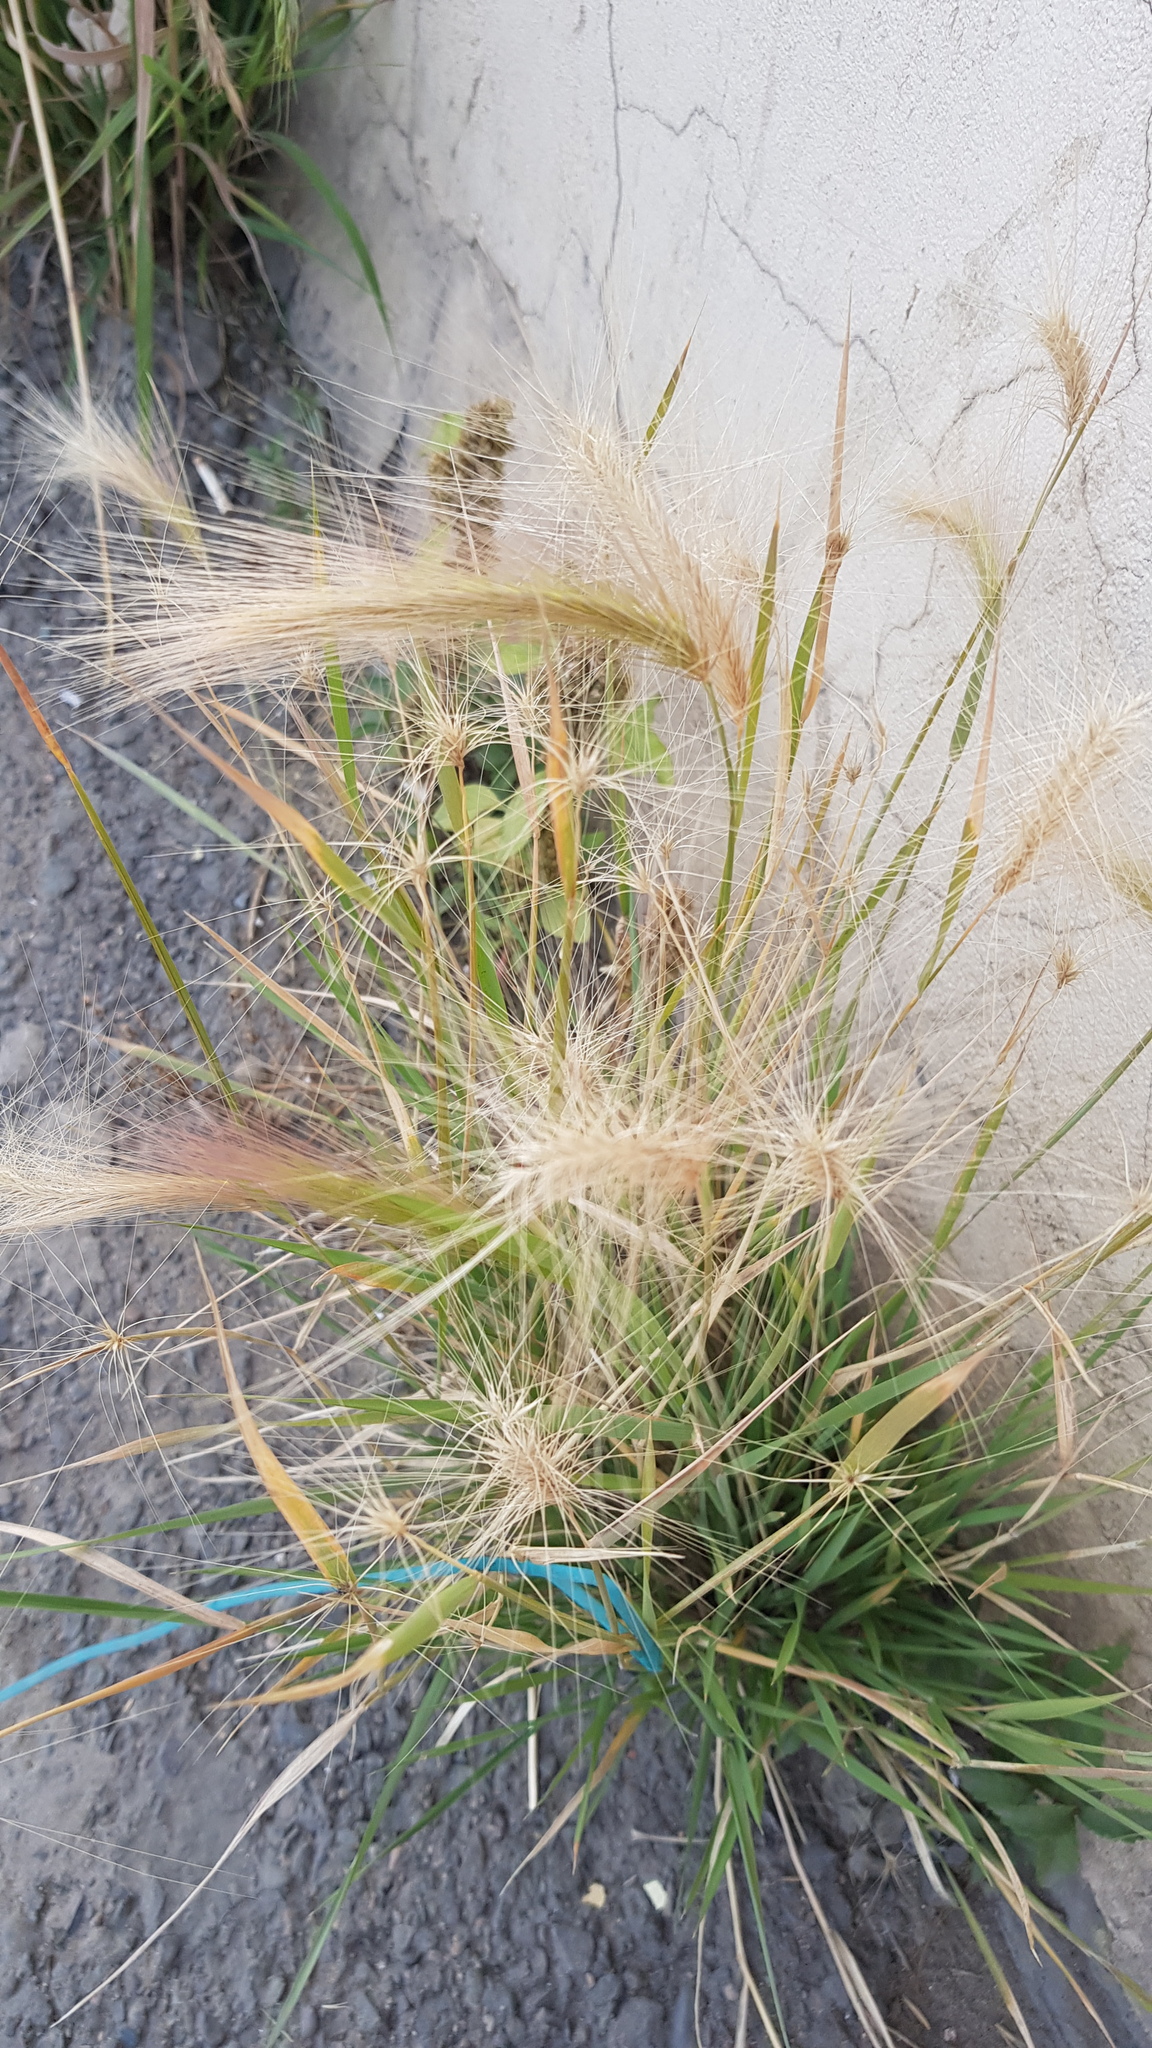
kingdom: Plantae
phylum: Tracheophyta
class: Liliopsida
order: Poales
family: Poaceae
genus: Hordeum
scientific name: Hordeum jubatum
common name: Foxtail barley
